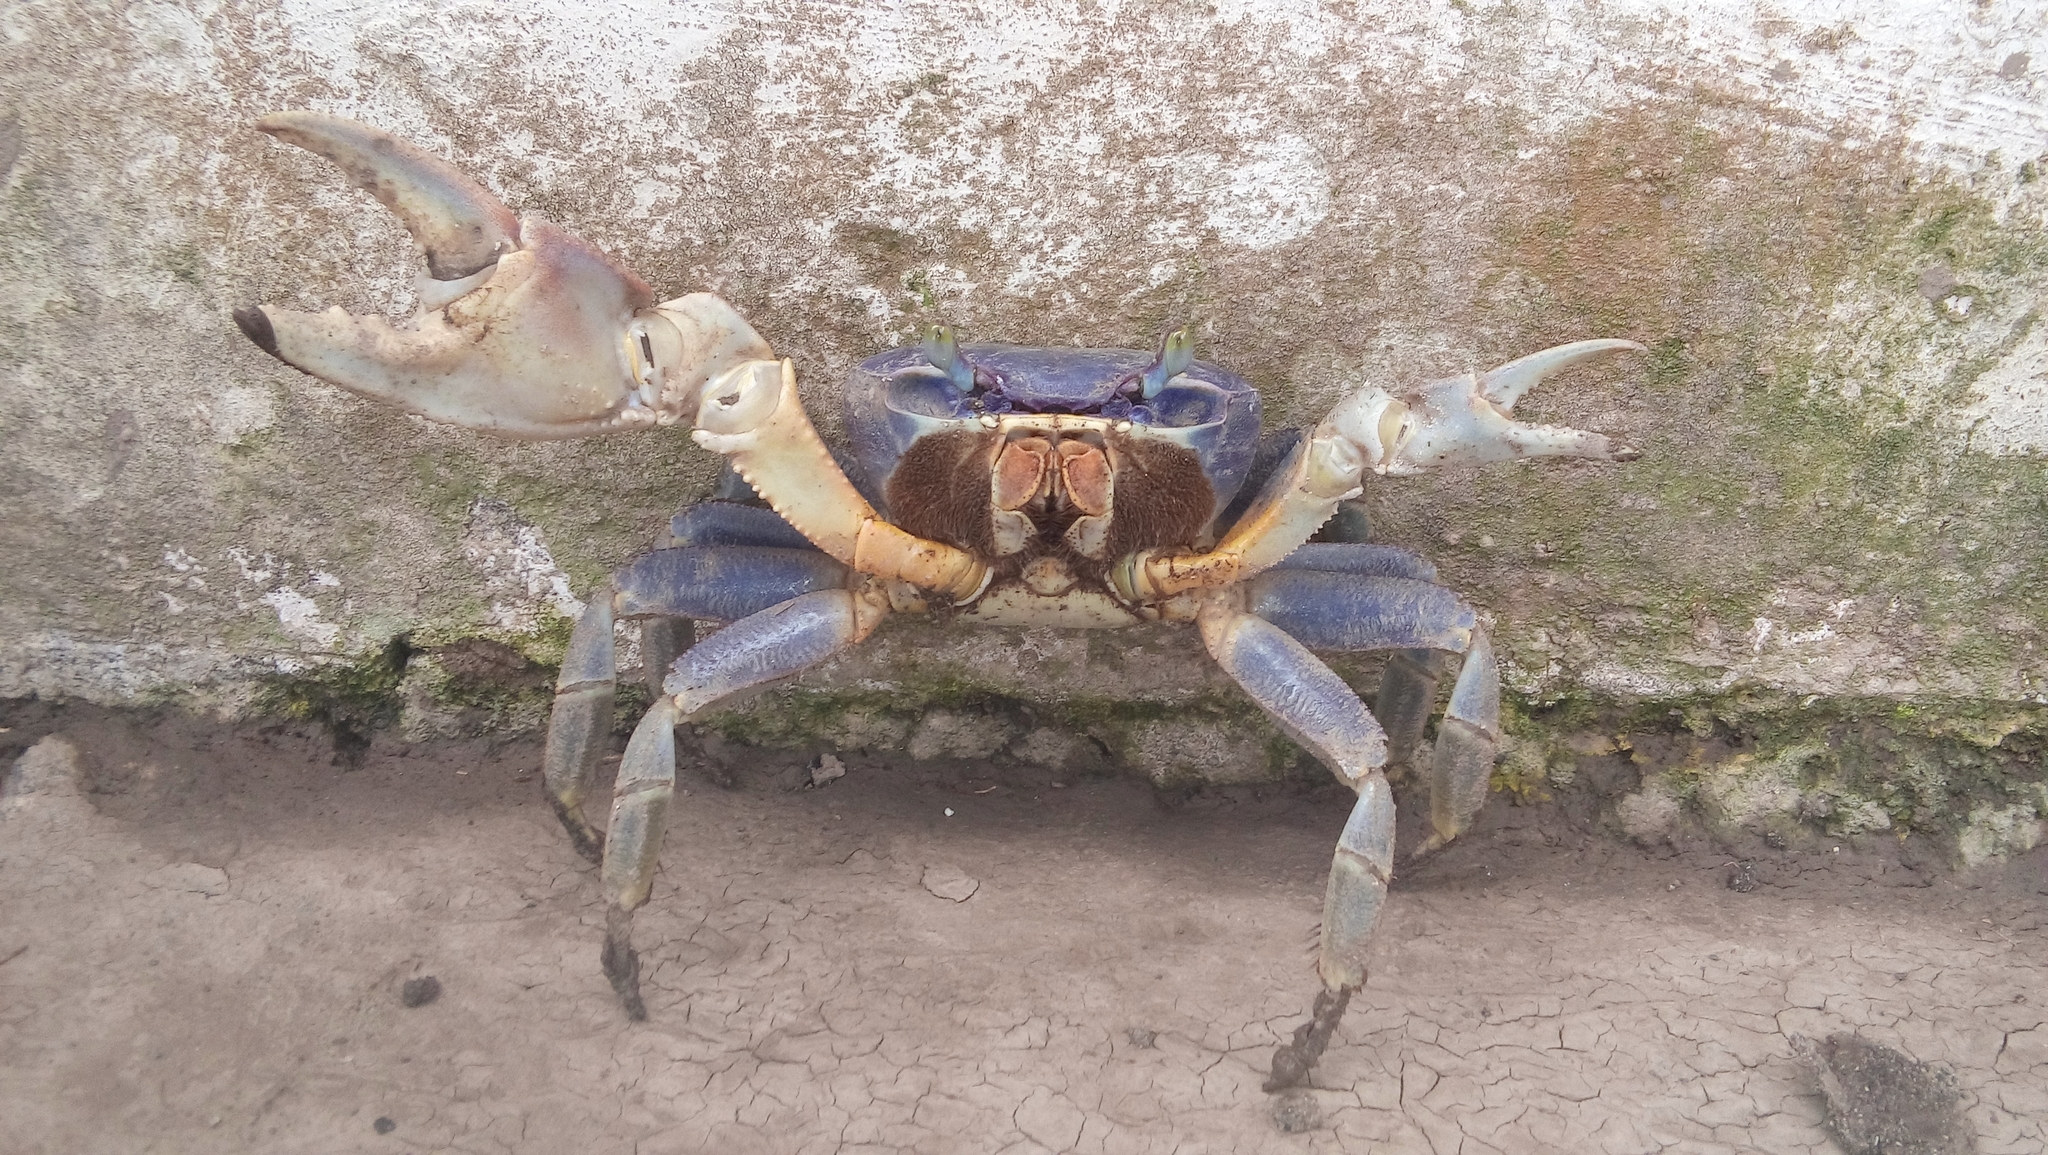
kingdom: Animalia
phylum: Arthropoda
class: Malacostraca
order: Decapoda
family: Gecarcinidae
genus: Cardisoma
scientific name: Cardisoma guanhumi
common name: Great land crab
